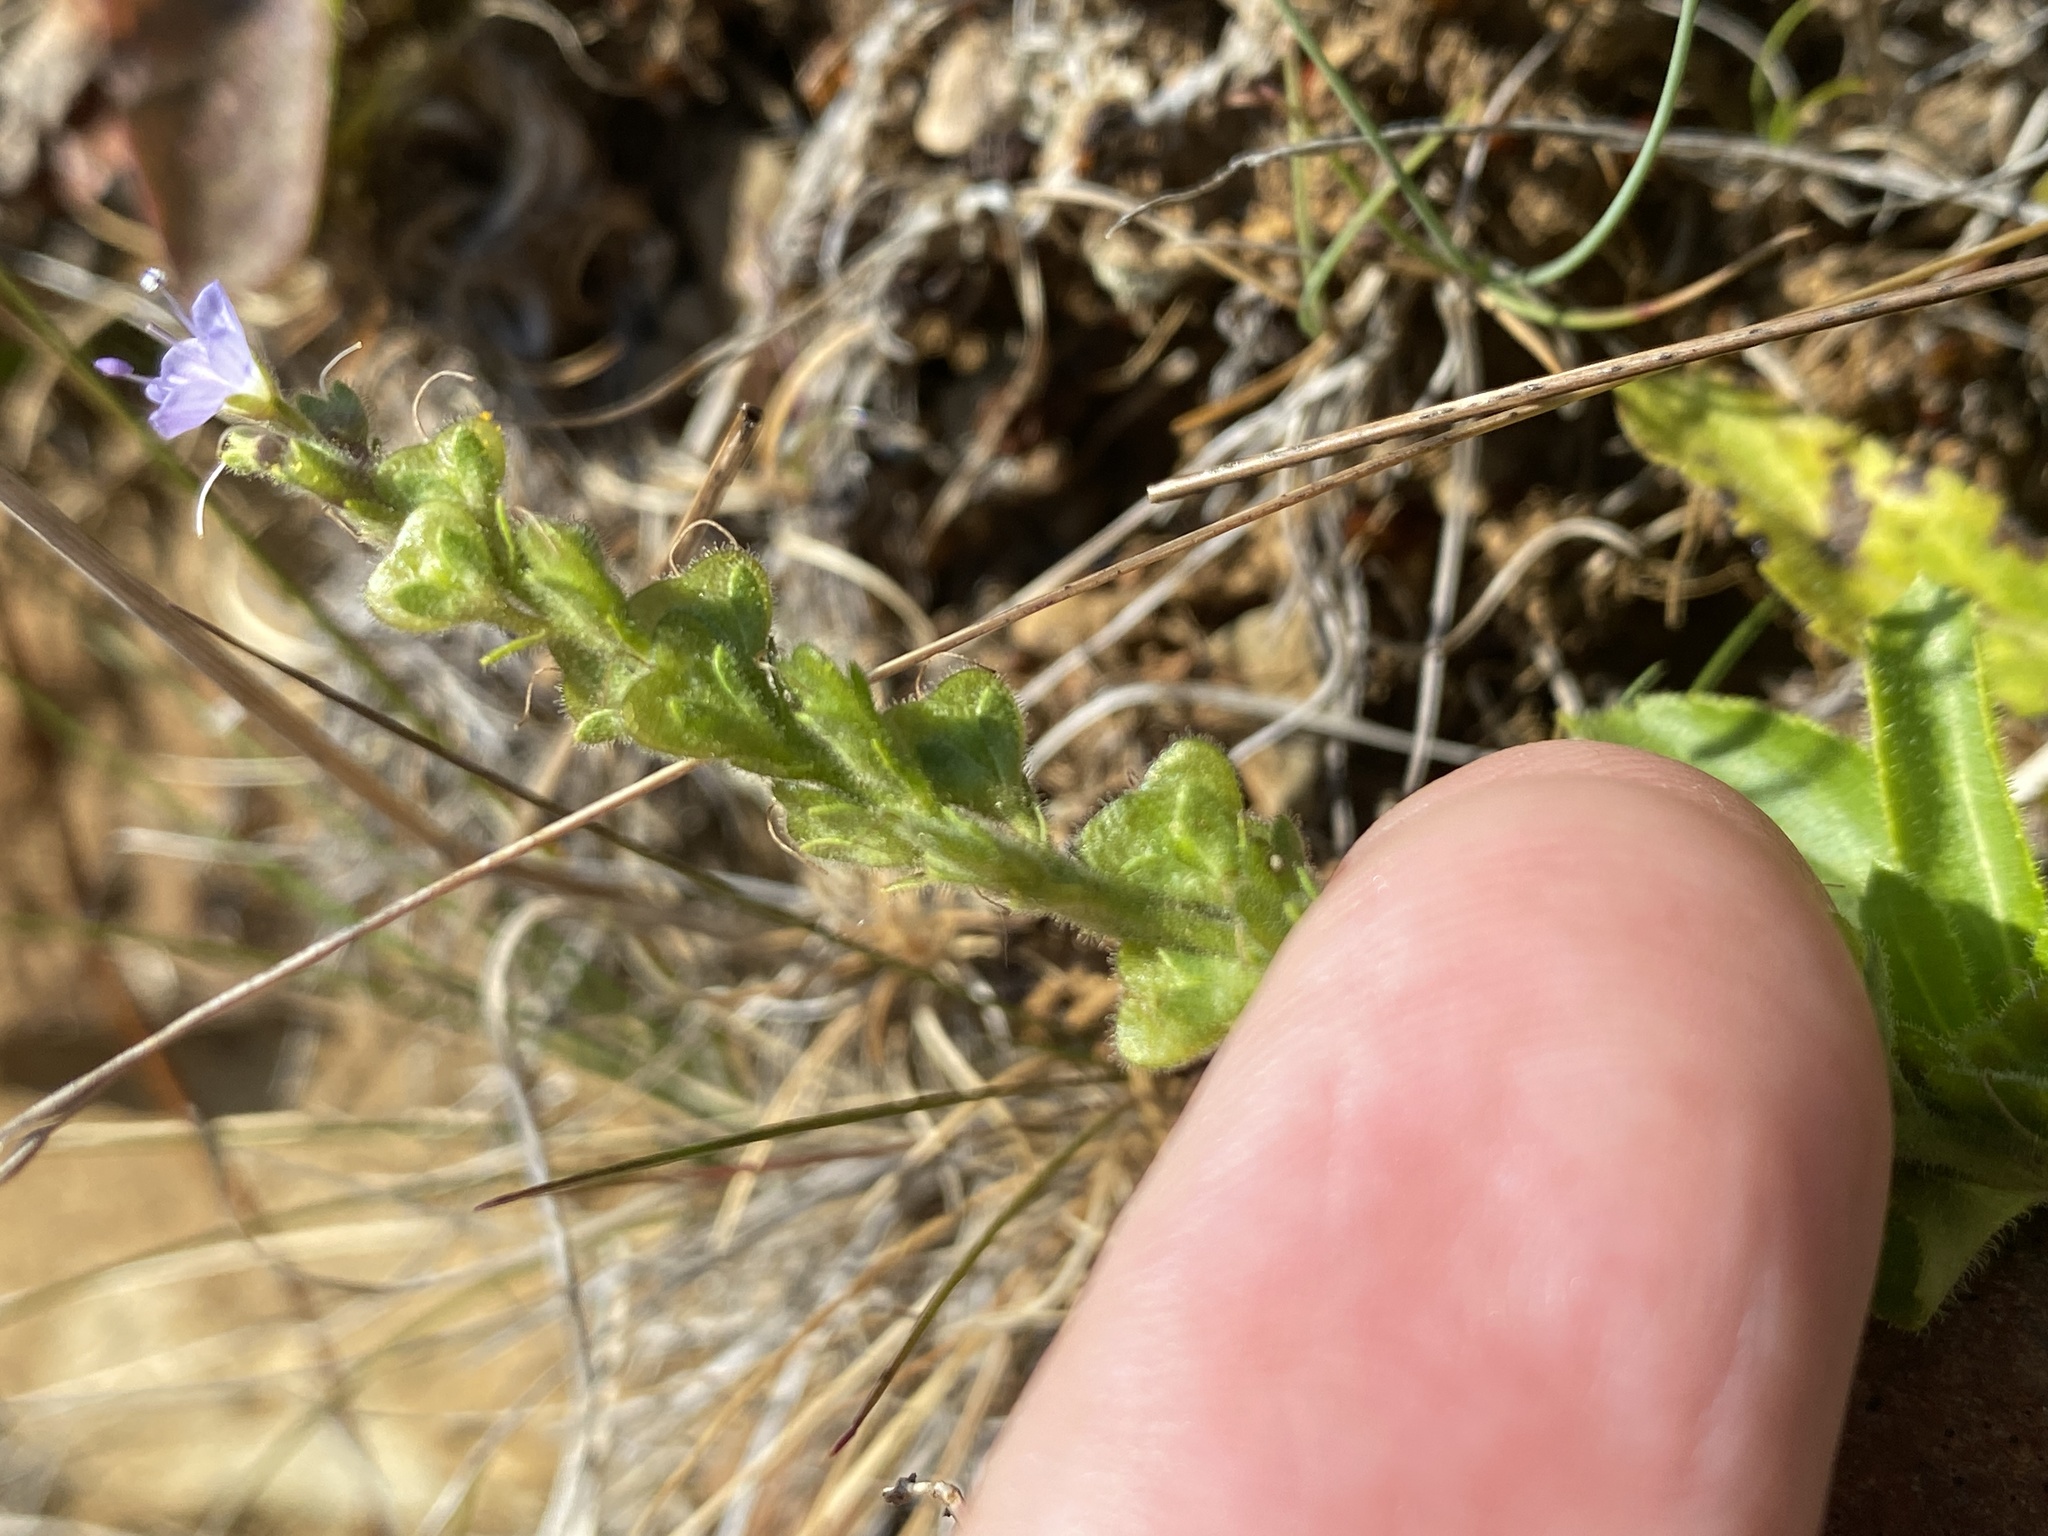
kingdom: Plantae
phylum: Tracheophyta
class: Magnoliopsida
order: Lamiales
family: Plantaginaceae
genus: Veronica
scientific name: Veronica officinalis
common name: Common speedwell
